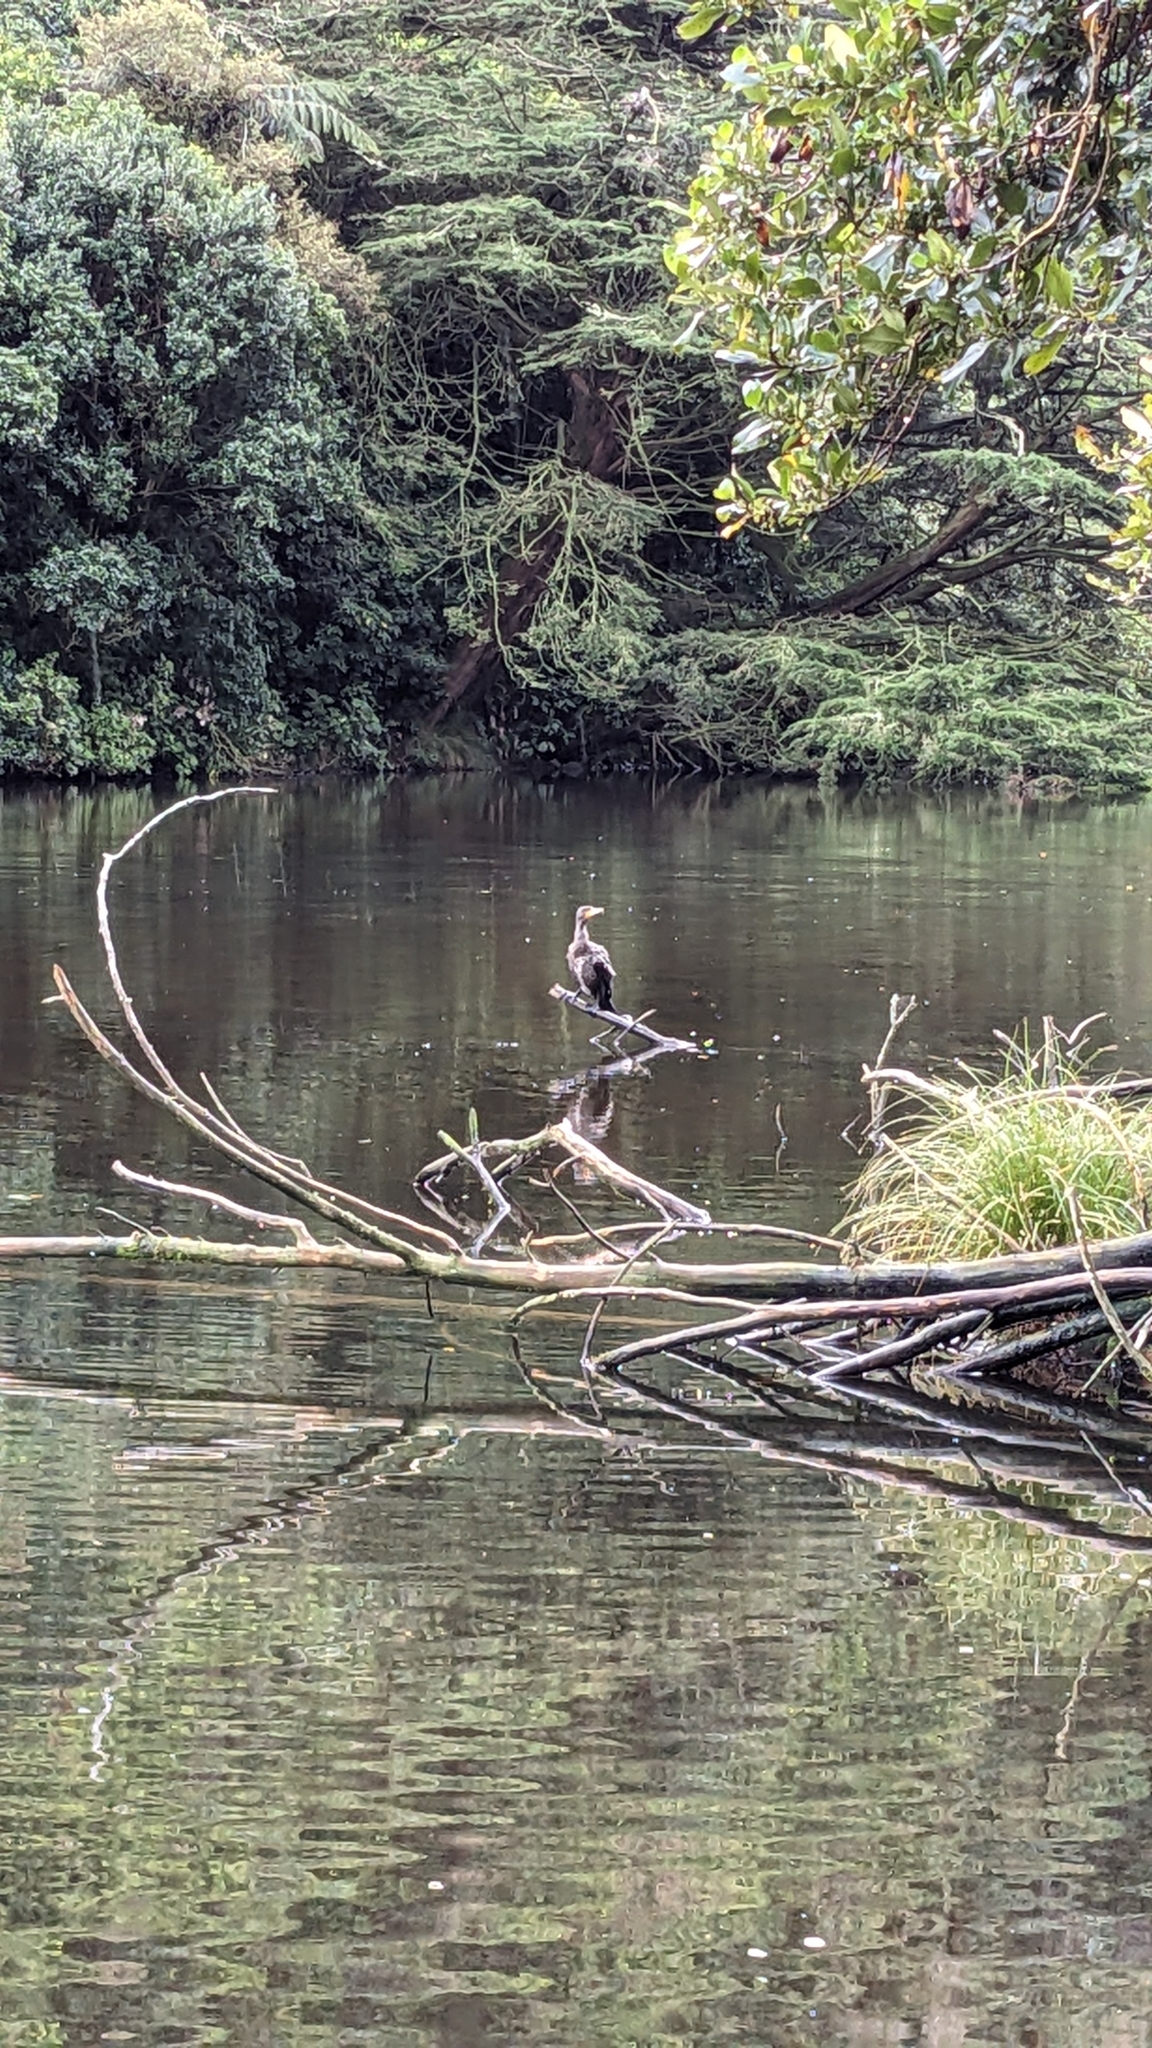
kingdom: Animalia
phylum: Chordata
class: Aves
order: Suliformes
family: Phalacrocoracidae
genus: Phalacrocorax
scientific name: Phalacrocorax carbo
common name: Great cormorant
